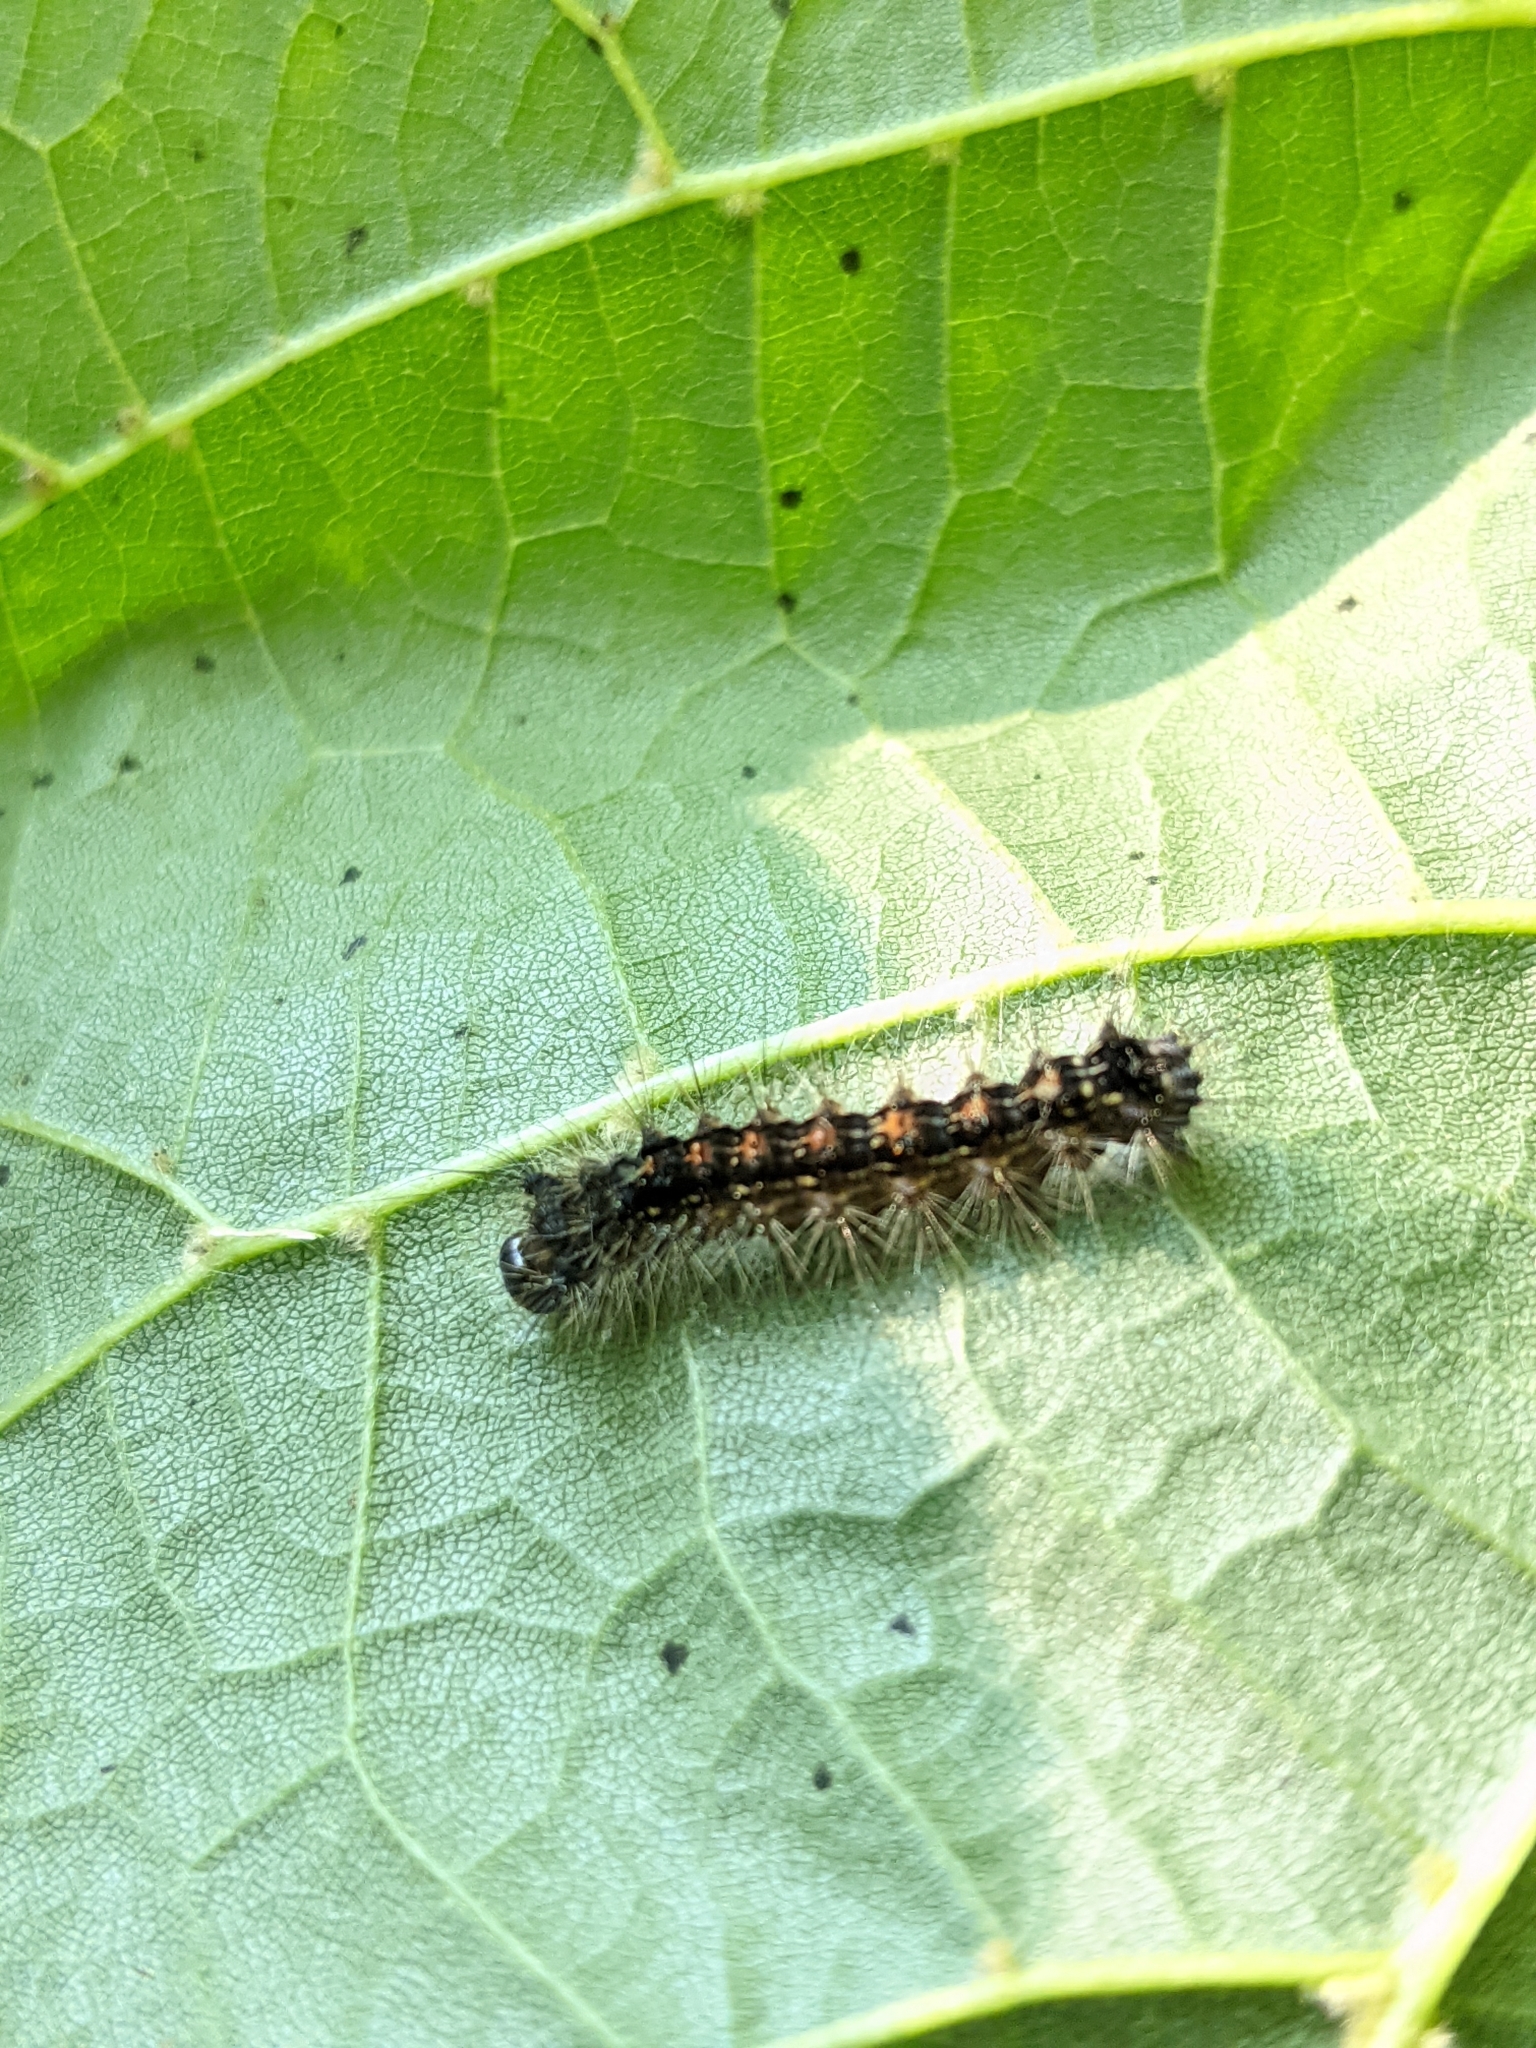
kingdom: Animalia
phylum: Arthropoda
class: Insecta
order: Lepidoptera
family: Erebidae
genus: Lymantria
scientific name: Lymantria dispar
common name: Gypsy moth
